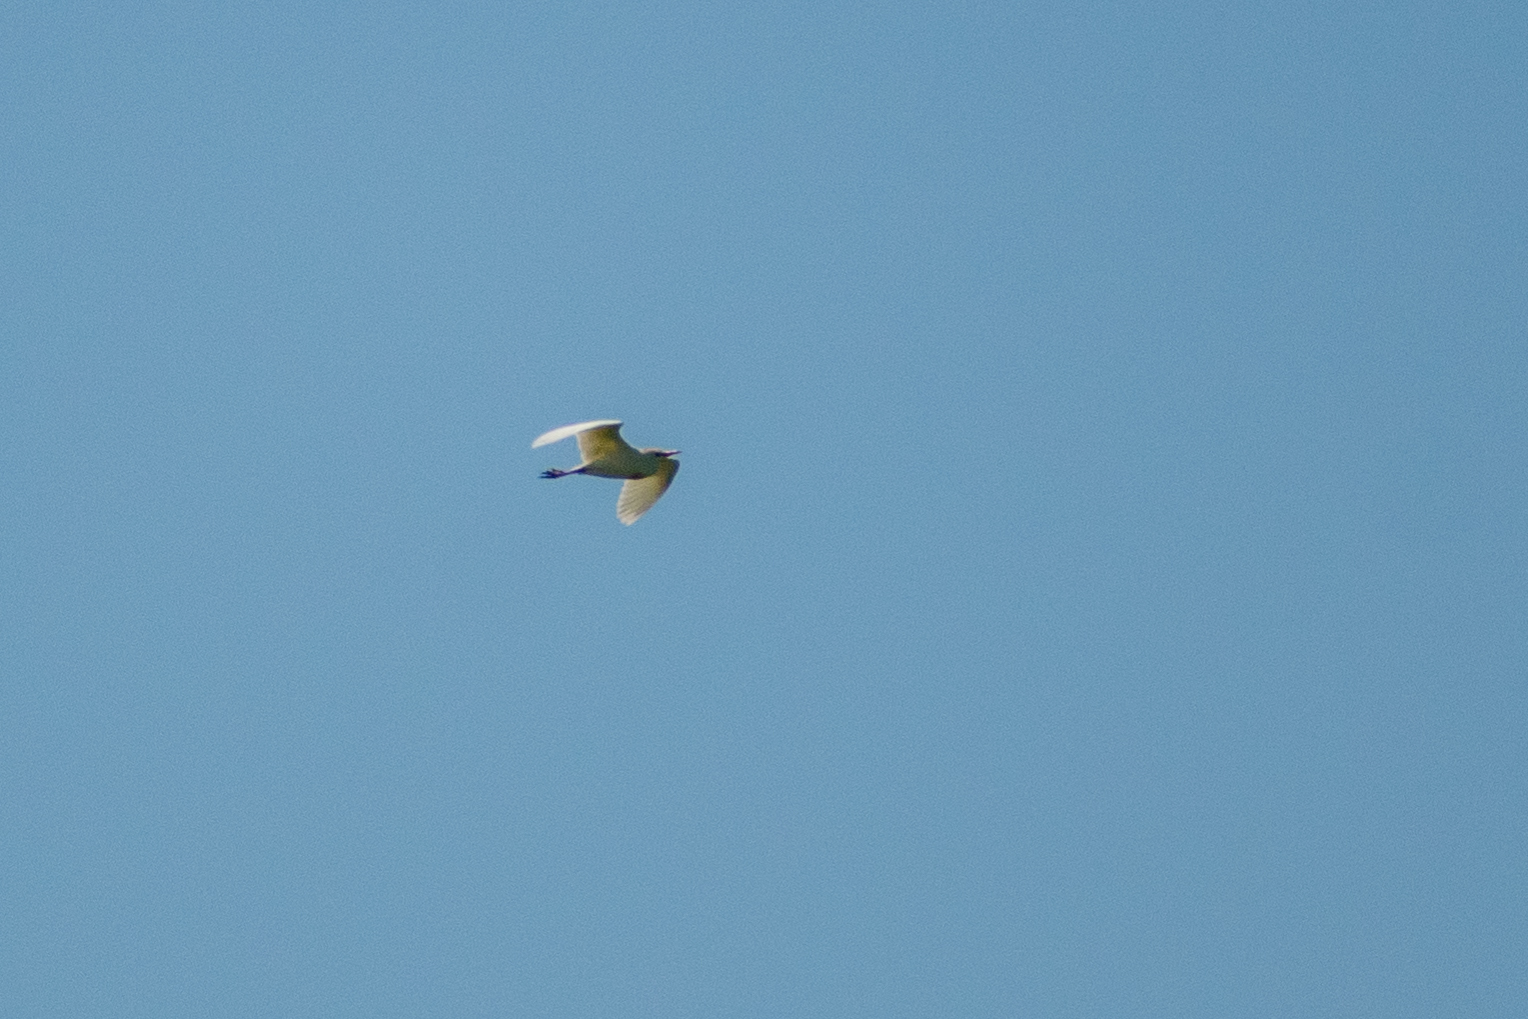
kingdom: Animalia
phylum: Chordata
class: Aves
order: Pelecaniformes
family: Ardeidae
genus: Bubulcus
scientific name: Bubulcus ibis
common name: Cattle egret
